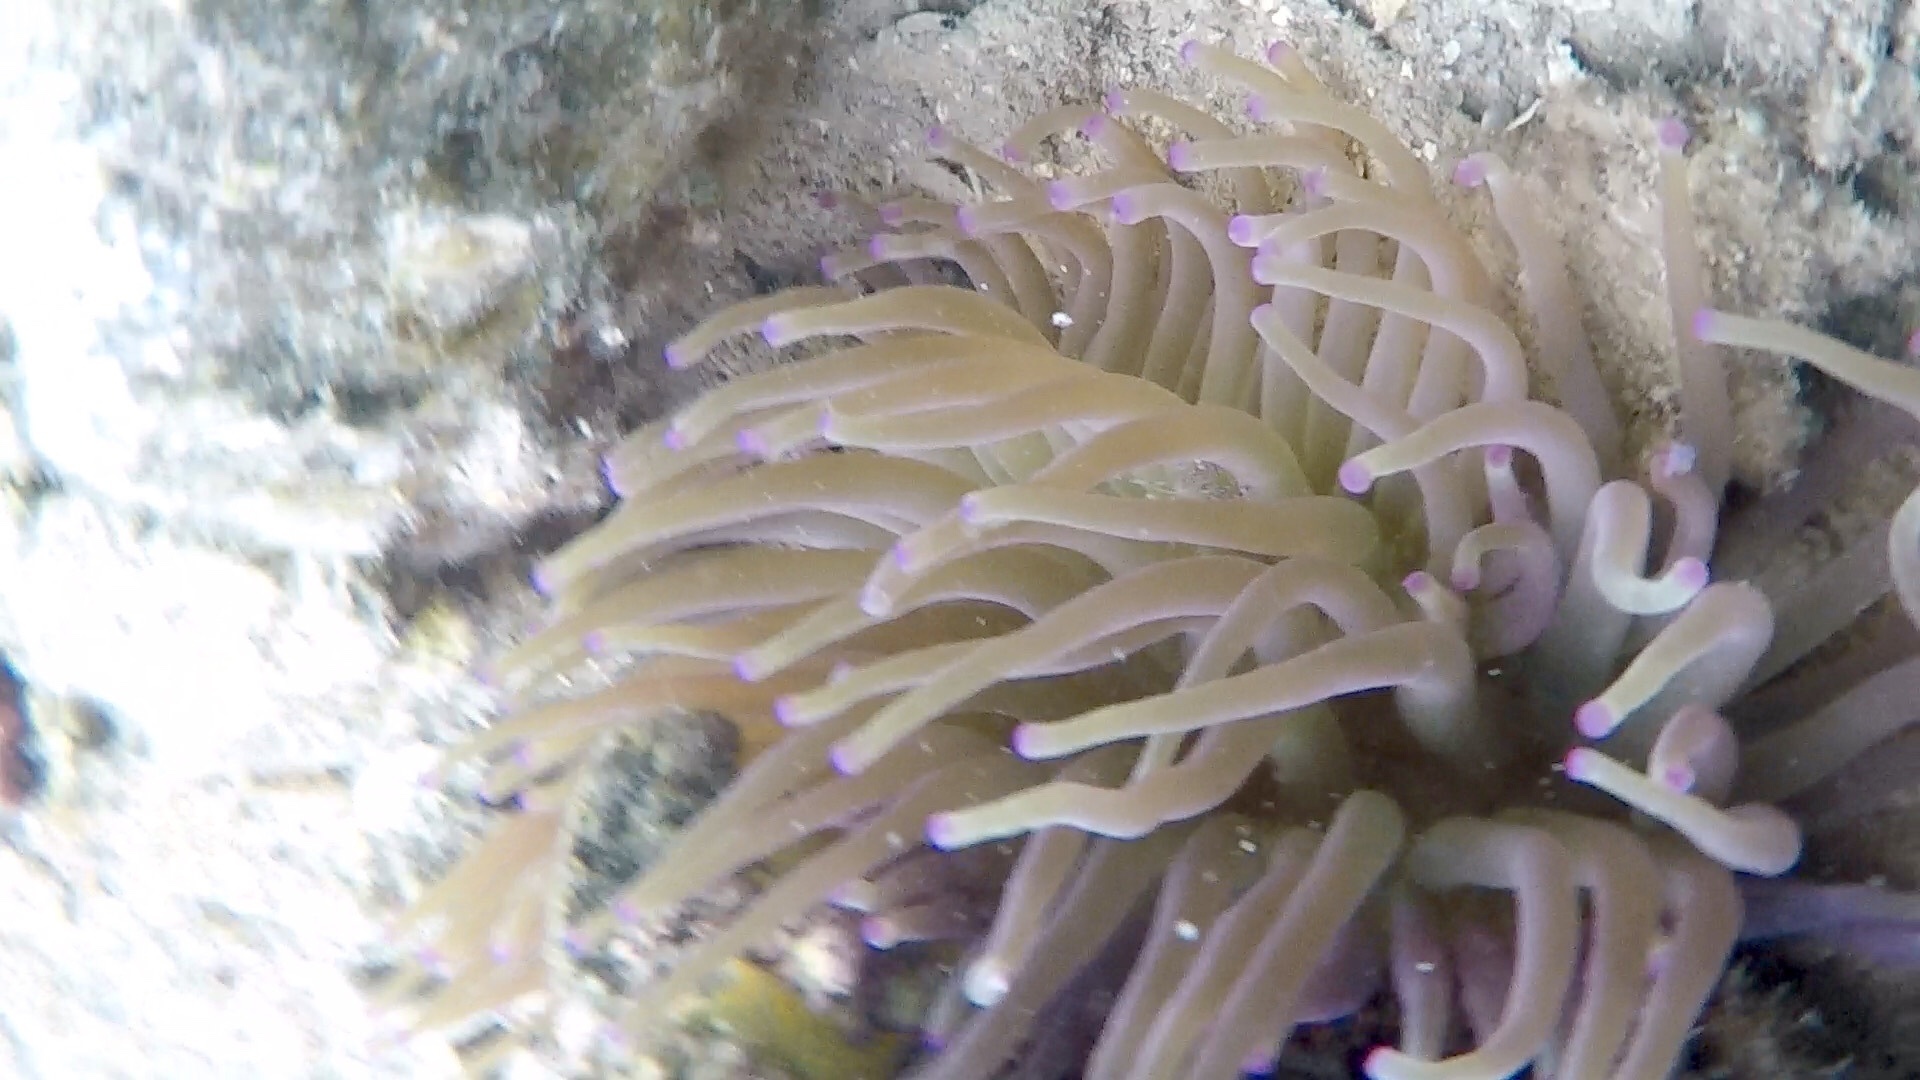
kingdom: Animalia
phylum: Cnidaria
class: Anthozoa
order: Actiniaria
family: Actiniidae
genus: Condylactis
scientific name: Condylactis gigantea
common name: Giant caribbean anemone
